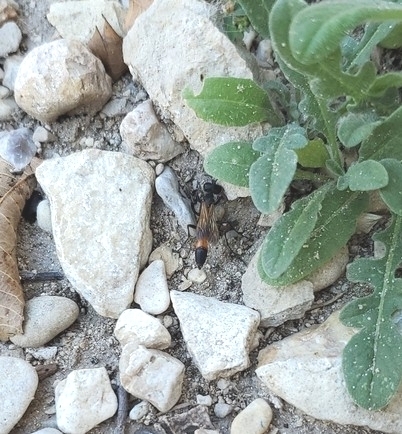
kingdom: Animalia
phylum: Arthropoda
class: Insecta
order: Hymenoptera
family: Sphecidae
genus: Ammophila
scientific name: Ammophila
